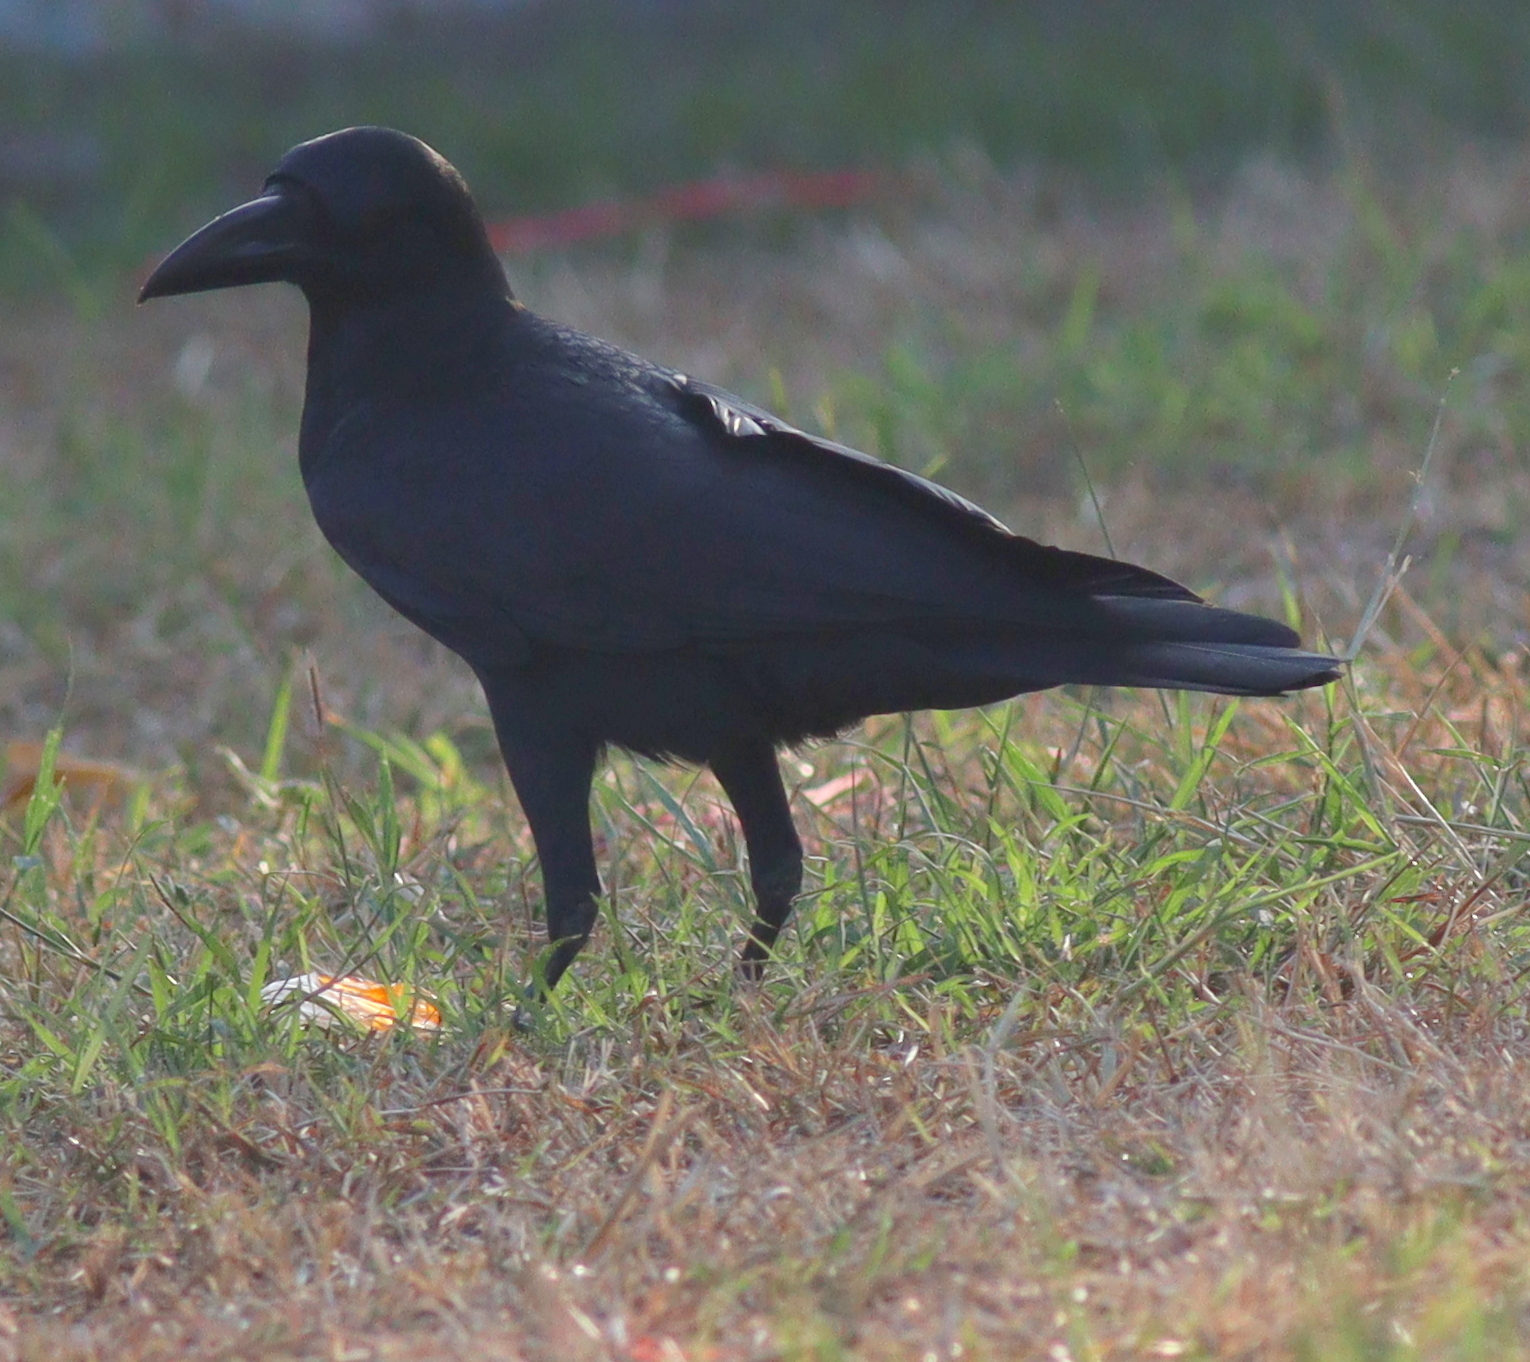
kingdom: Animalia
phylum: Chordata
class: Aves
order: Passeriformes
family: Corvidae
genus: Corvus
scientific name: Corvus macrorhynchos
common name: Large-billed crow
